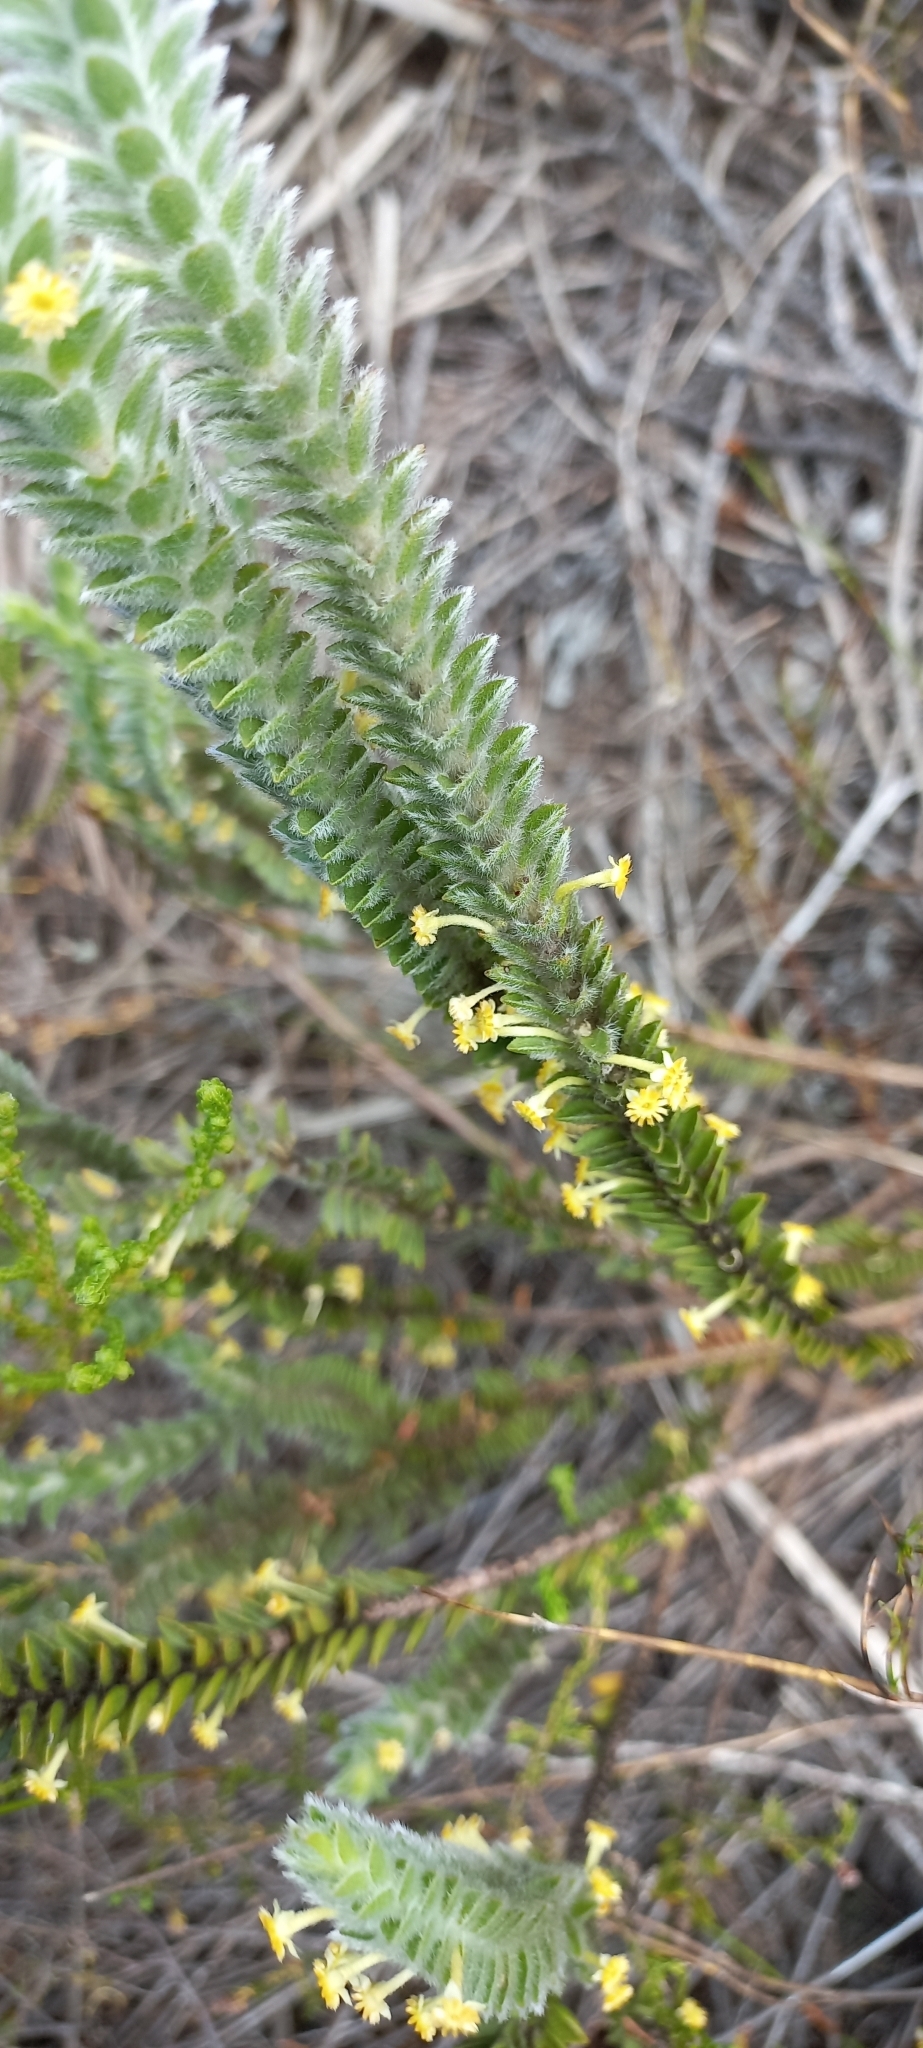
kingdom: Plantae
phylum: Tracheophyta
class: Magnoliopsida
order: Malvales
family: Thymelaeaceae
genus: Struthiola
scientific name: Struthiola tomentosa
